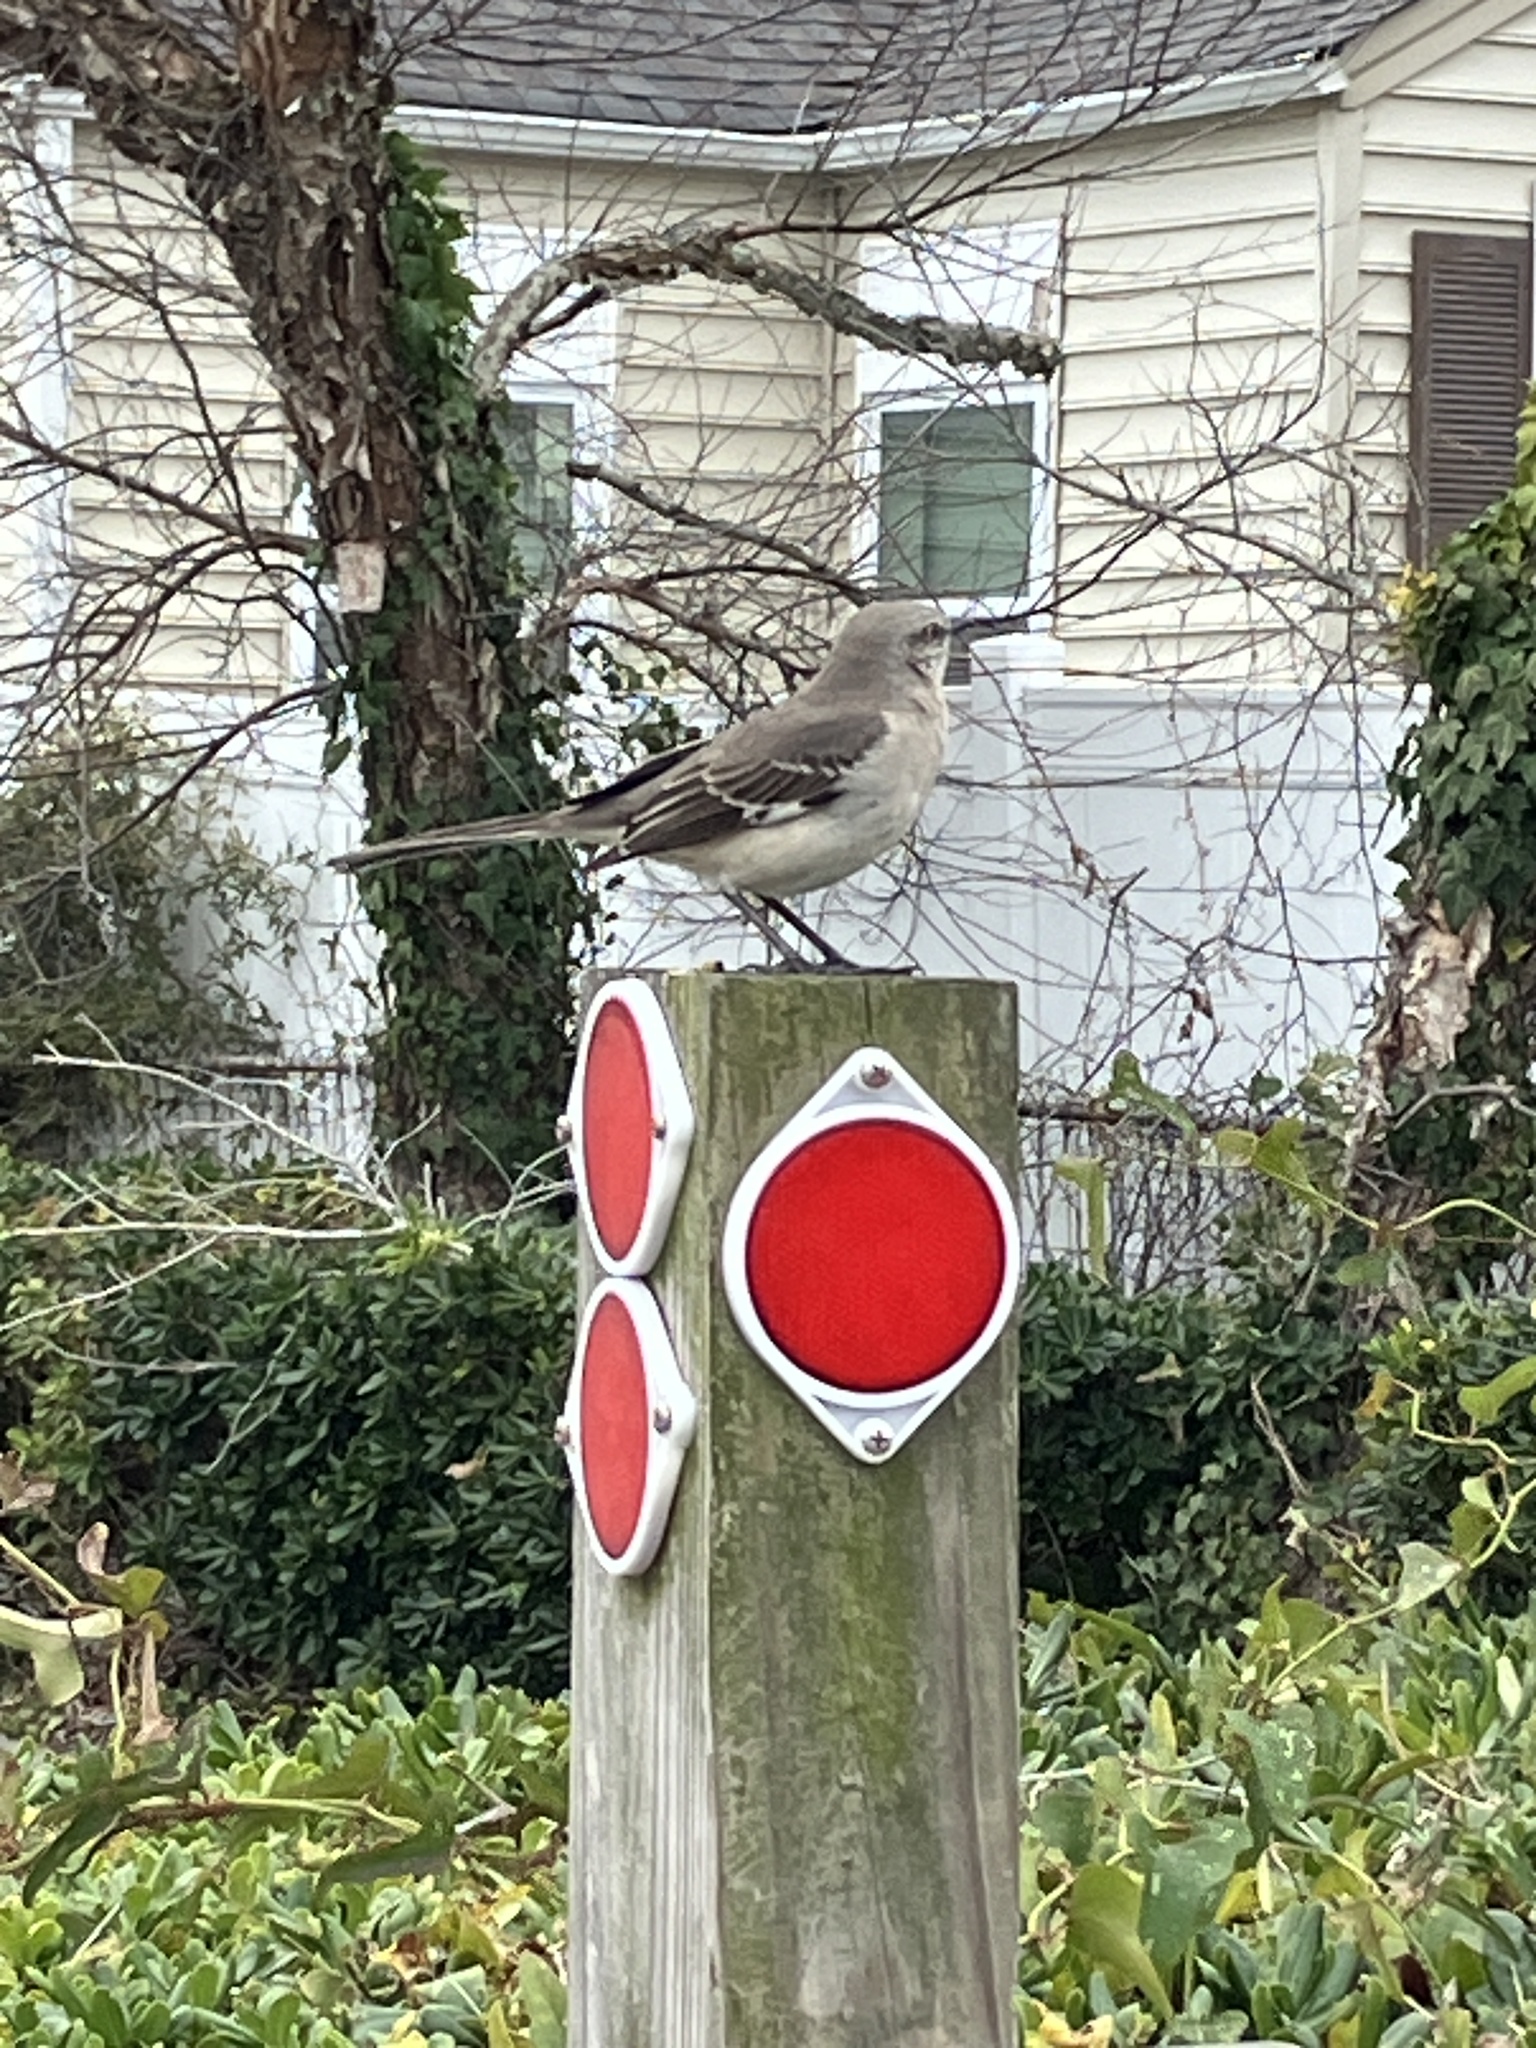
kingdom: Animalia
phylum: Chordata
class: Aves
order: Passeriformes
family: Mimidae
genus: Mimus
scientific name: Mimus polyglottos
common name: Northern mockingbird
